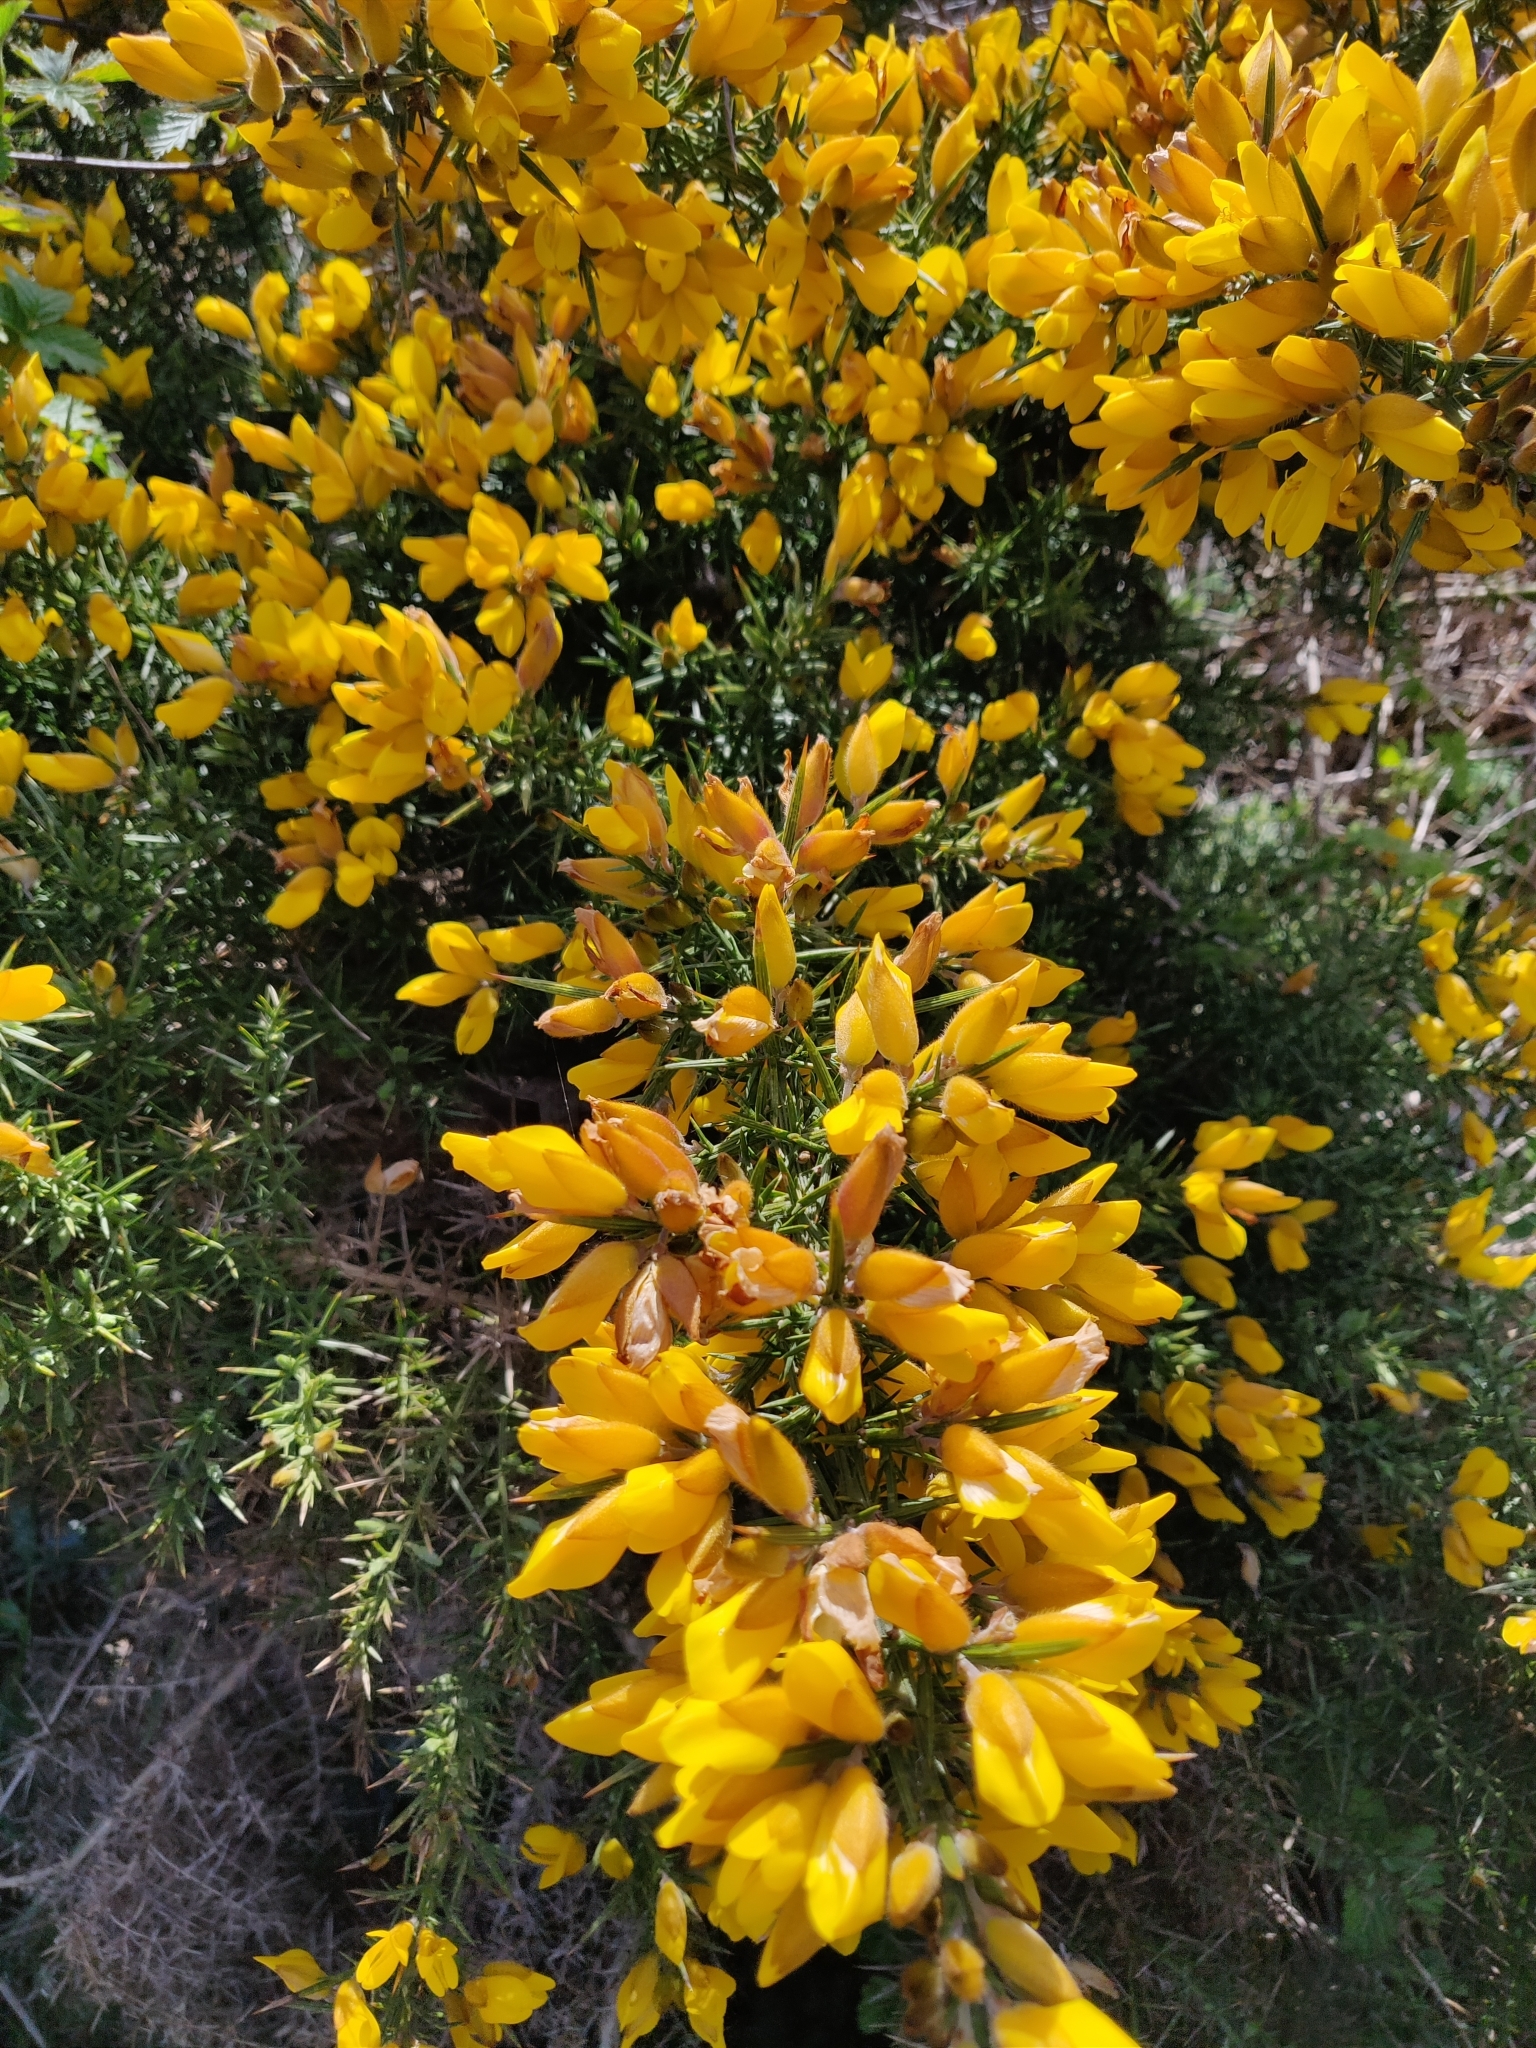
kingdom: Plantae
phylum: Tracheophyta
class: Magnoliopsida
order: Fabales
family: Fabaceae
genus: Ulex
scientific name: Ulex europaeus
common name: Common gorse
